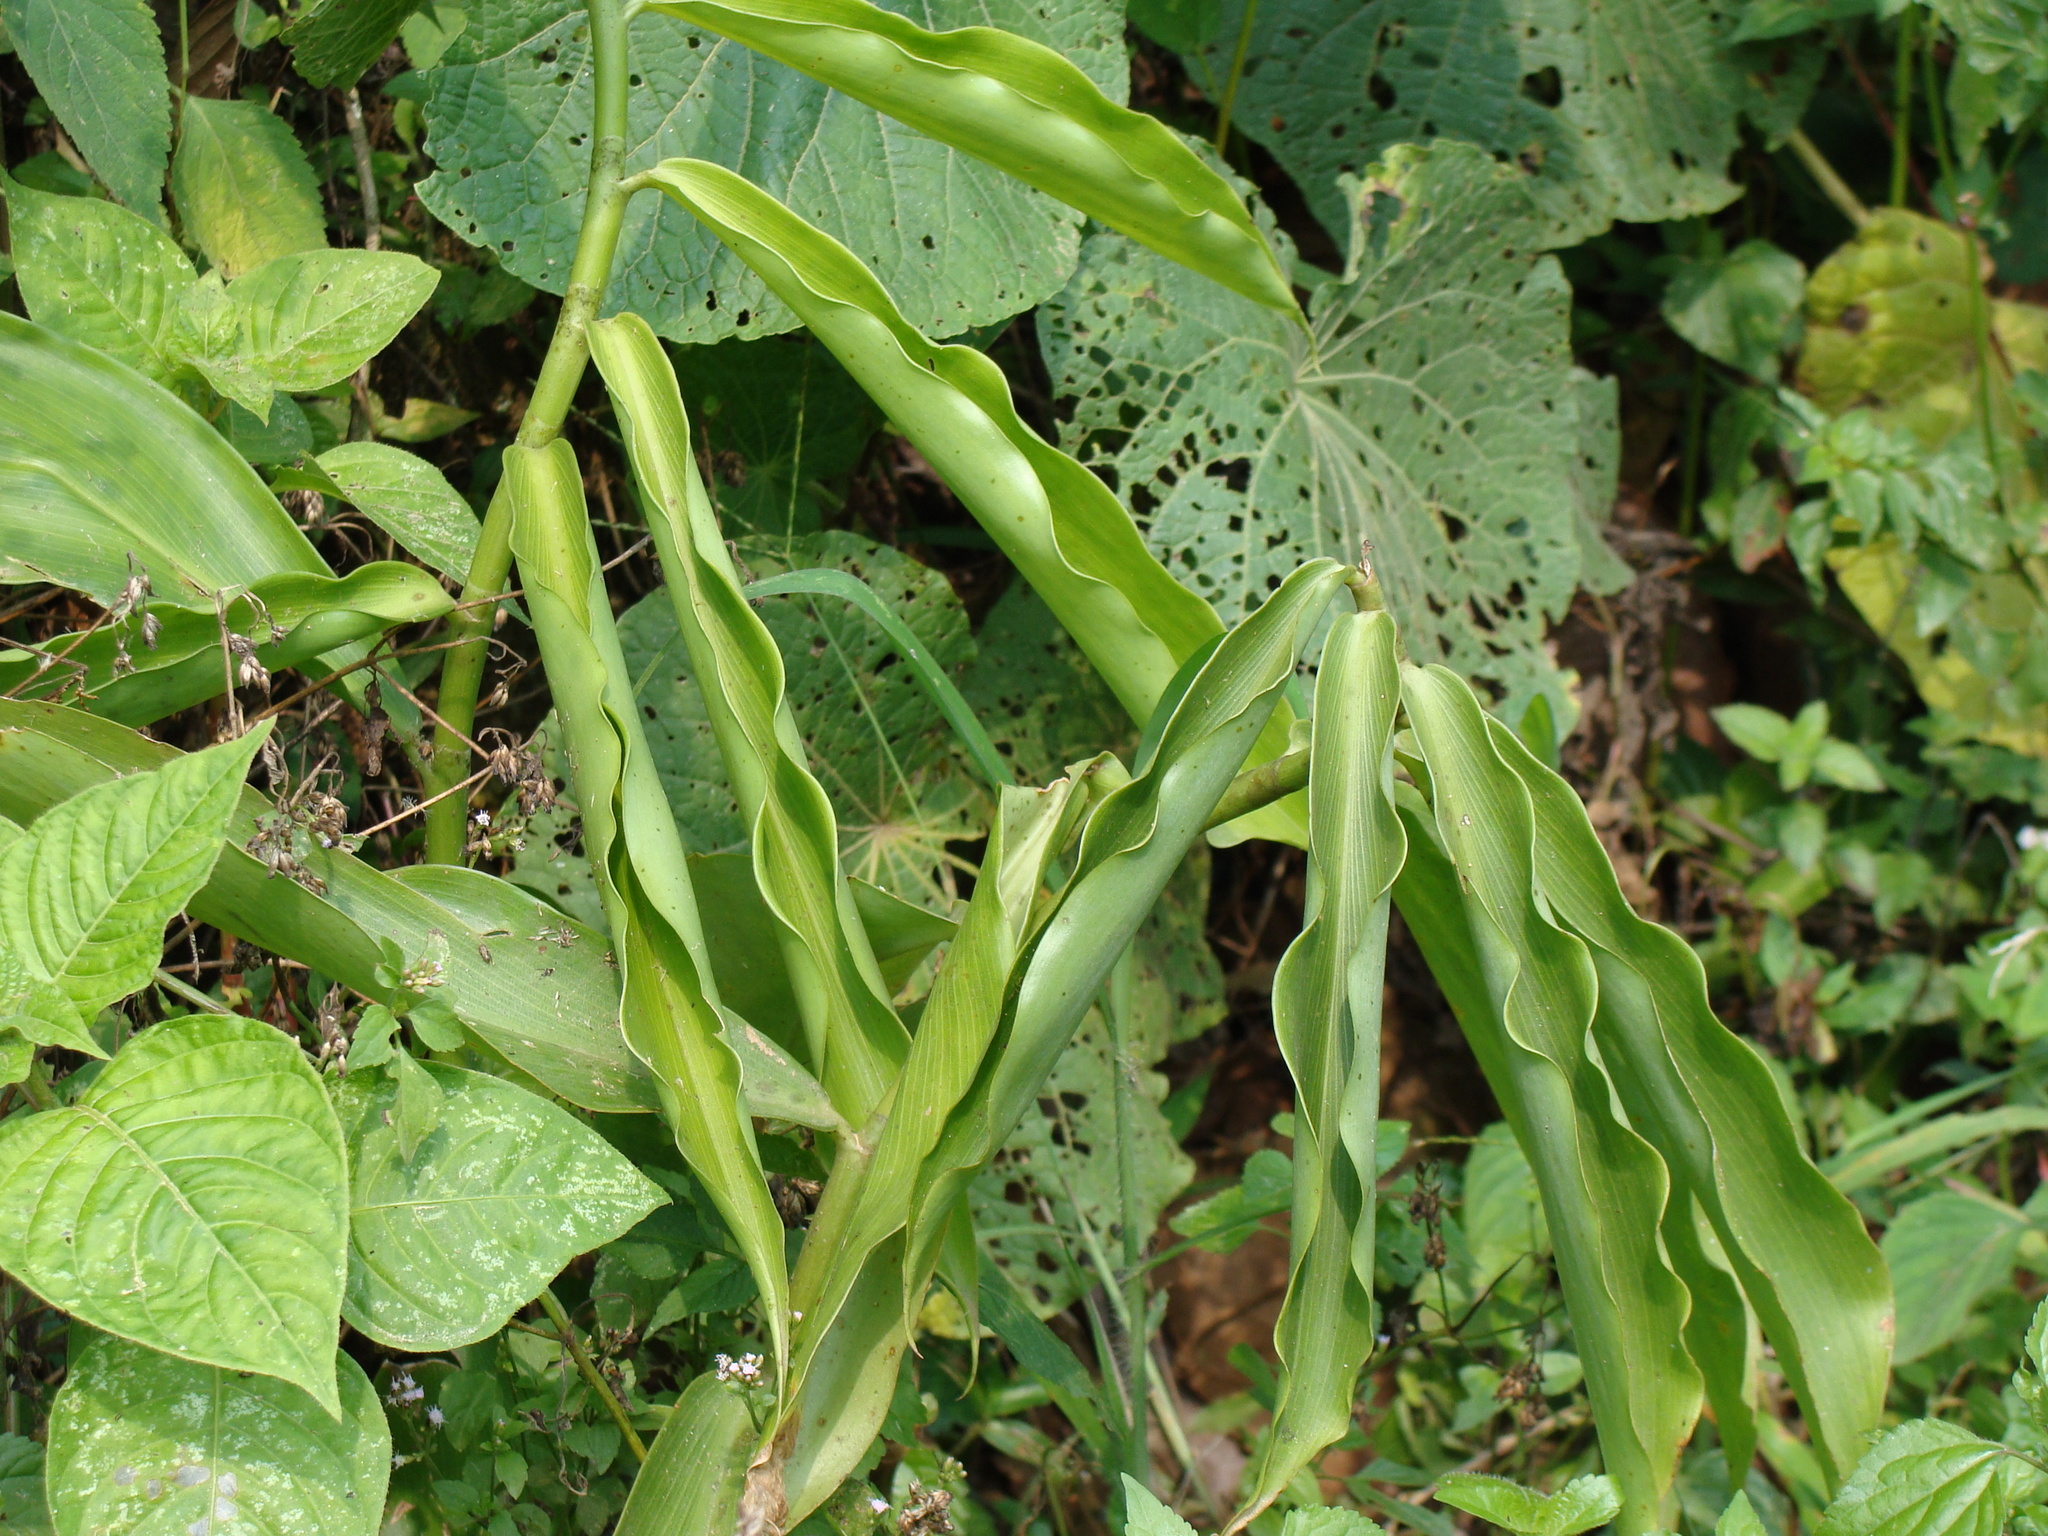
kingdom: Plantae
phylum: Tracheophyta
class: Liliopsida
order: Zingiberales
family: Costaceae
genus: Costus
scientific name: Costus pictus
